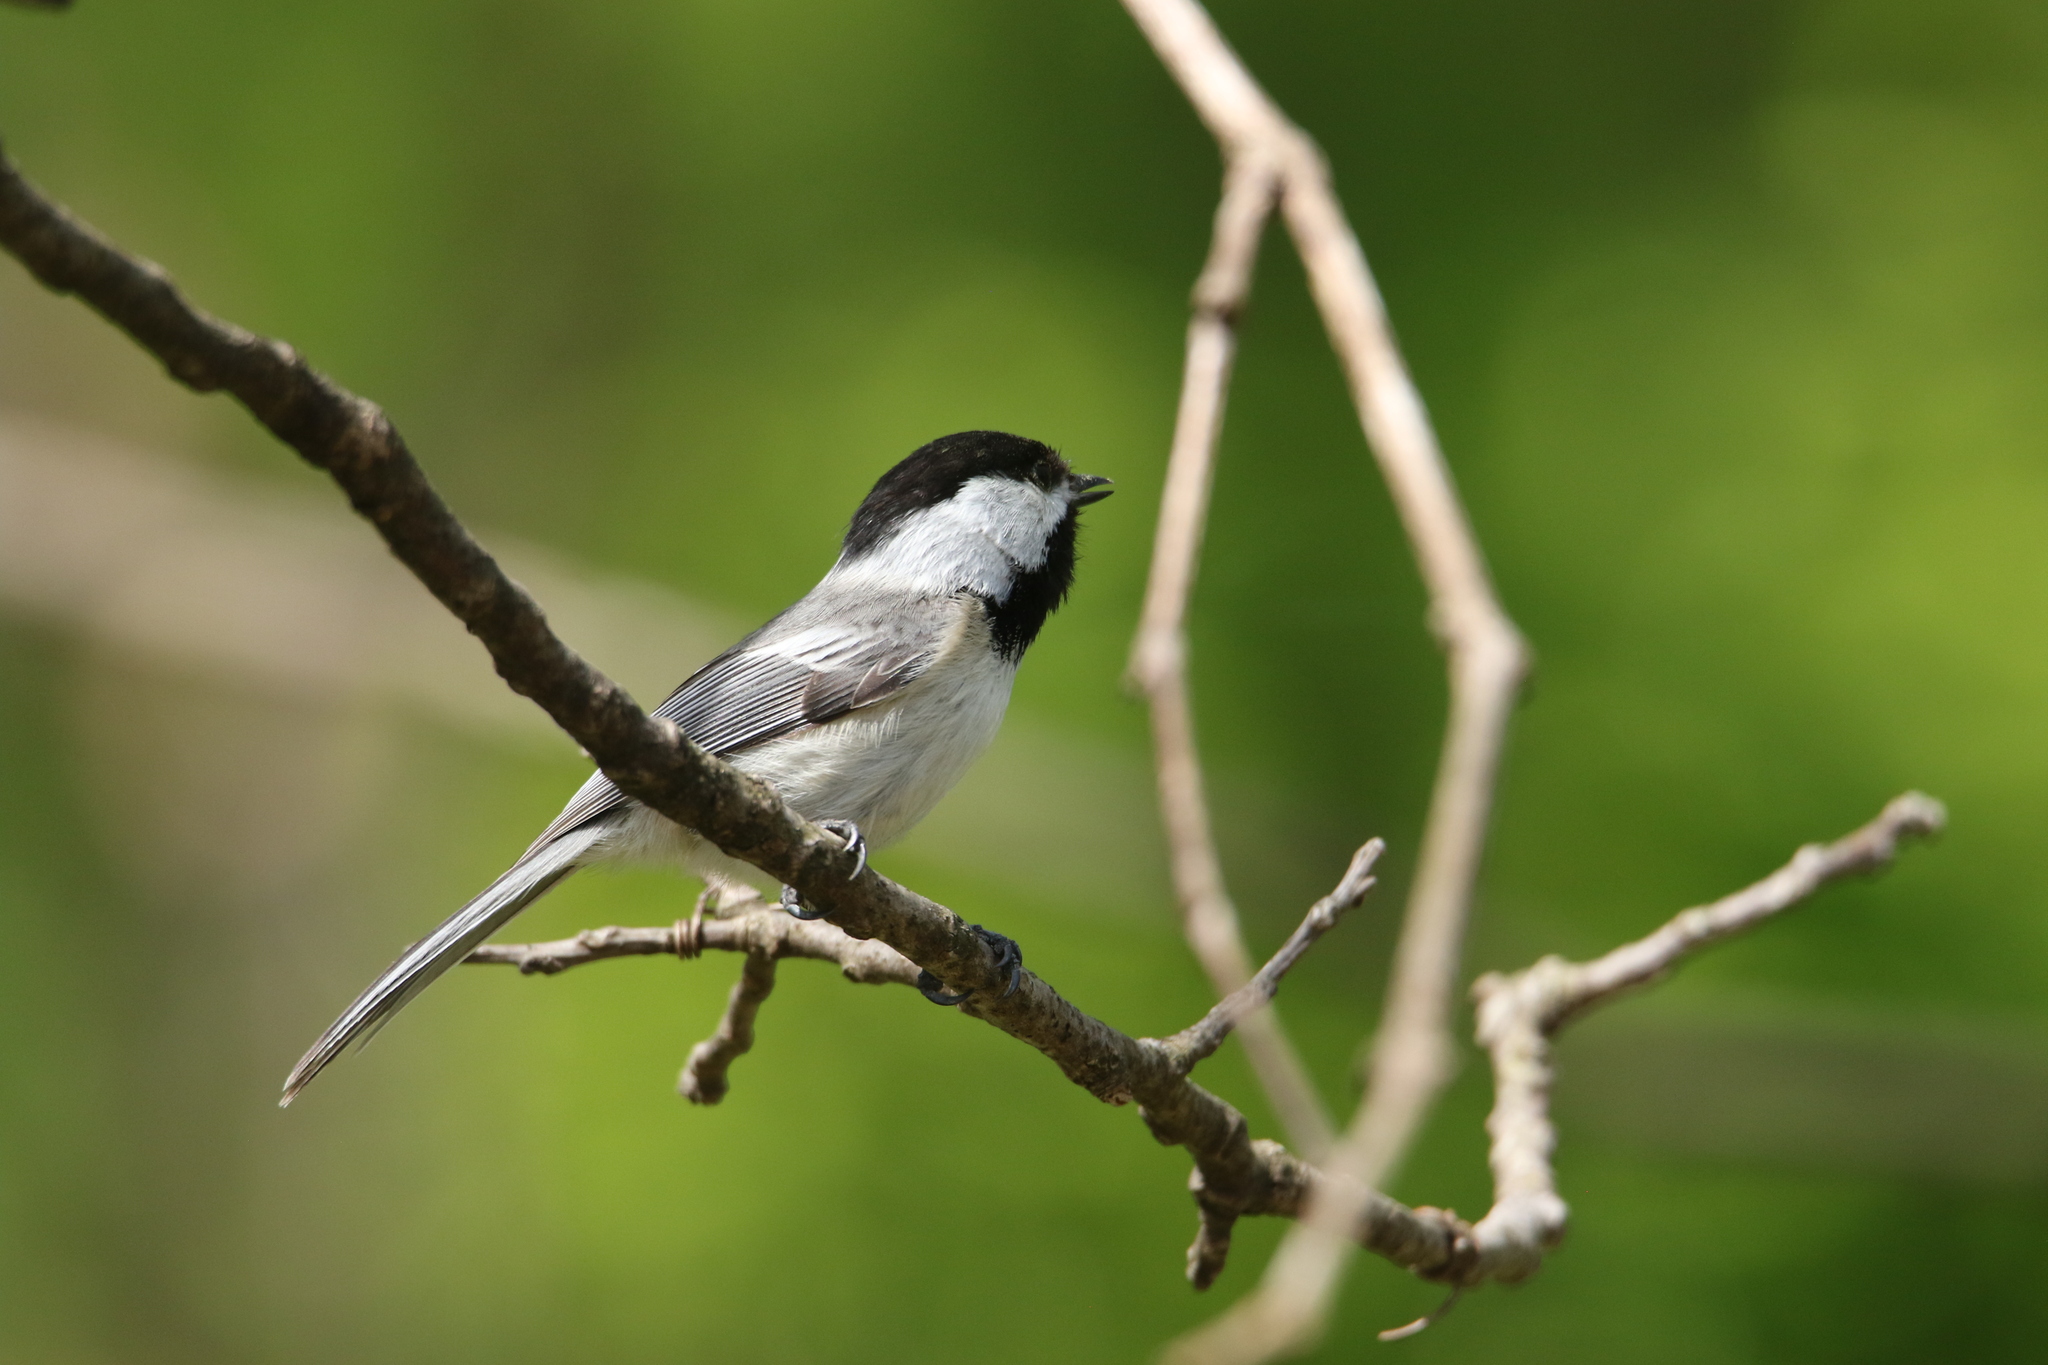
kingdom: Animalia
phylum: Chordata
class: Aves
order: Passeriformes
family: Paridae
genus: Poecile
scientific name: Poecile atricapillus
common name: Black-capped chickadee
